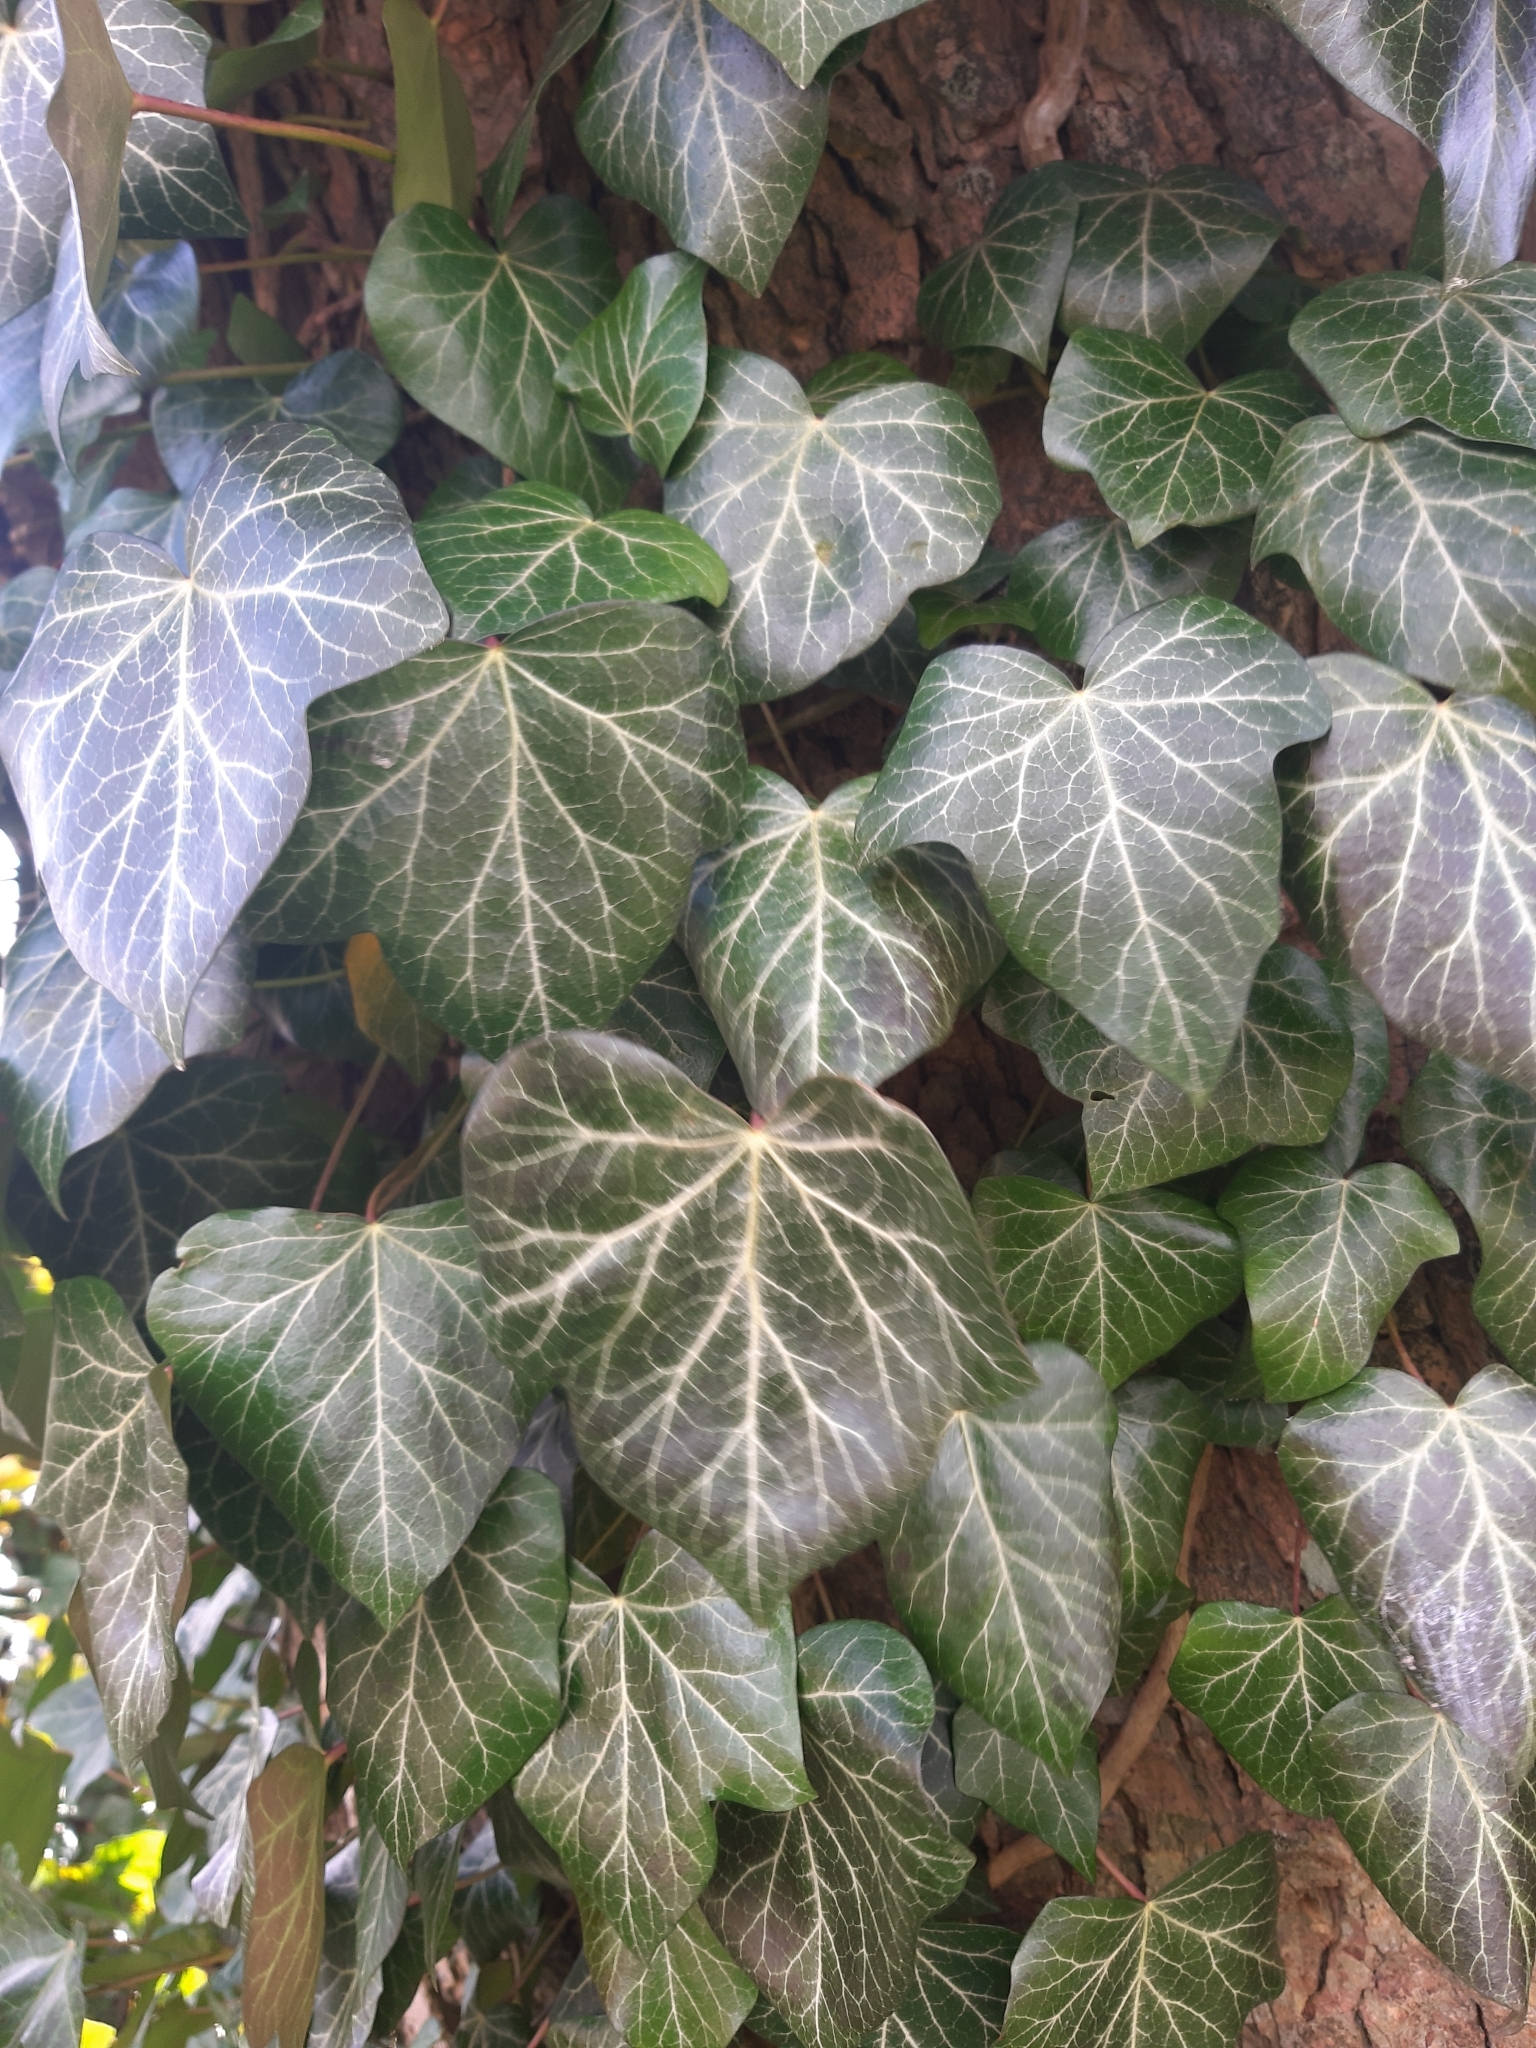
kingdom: Plantae
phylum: Tracheophyta
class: Magnoliopsida
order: Apiales
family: Araliaceae
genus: Hedera
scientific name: Hedera helix
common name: Ivy
